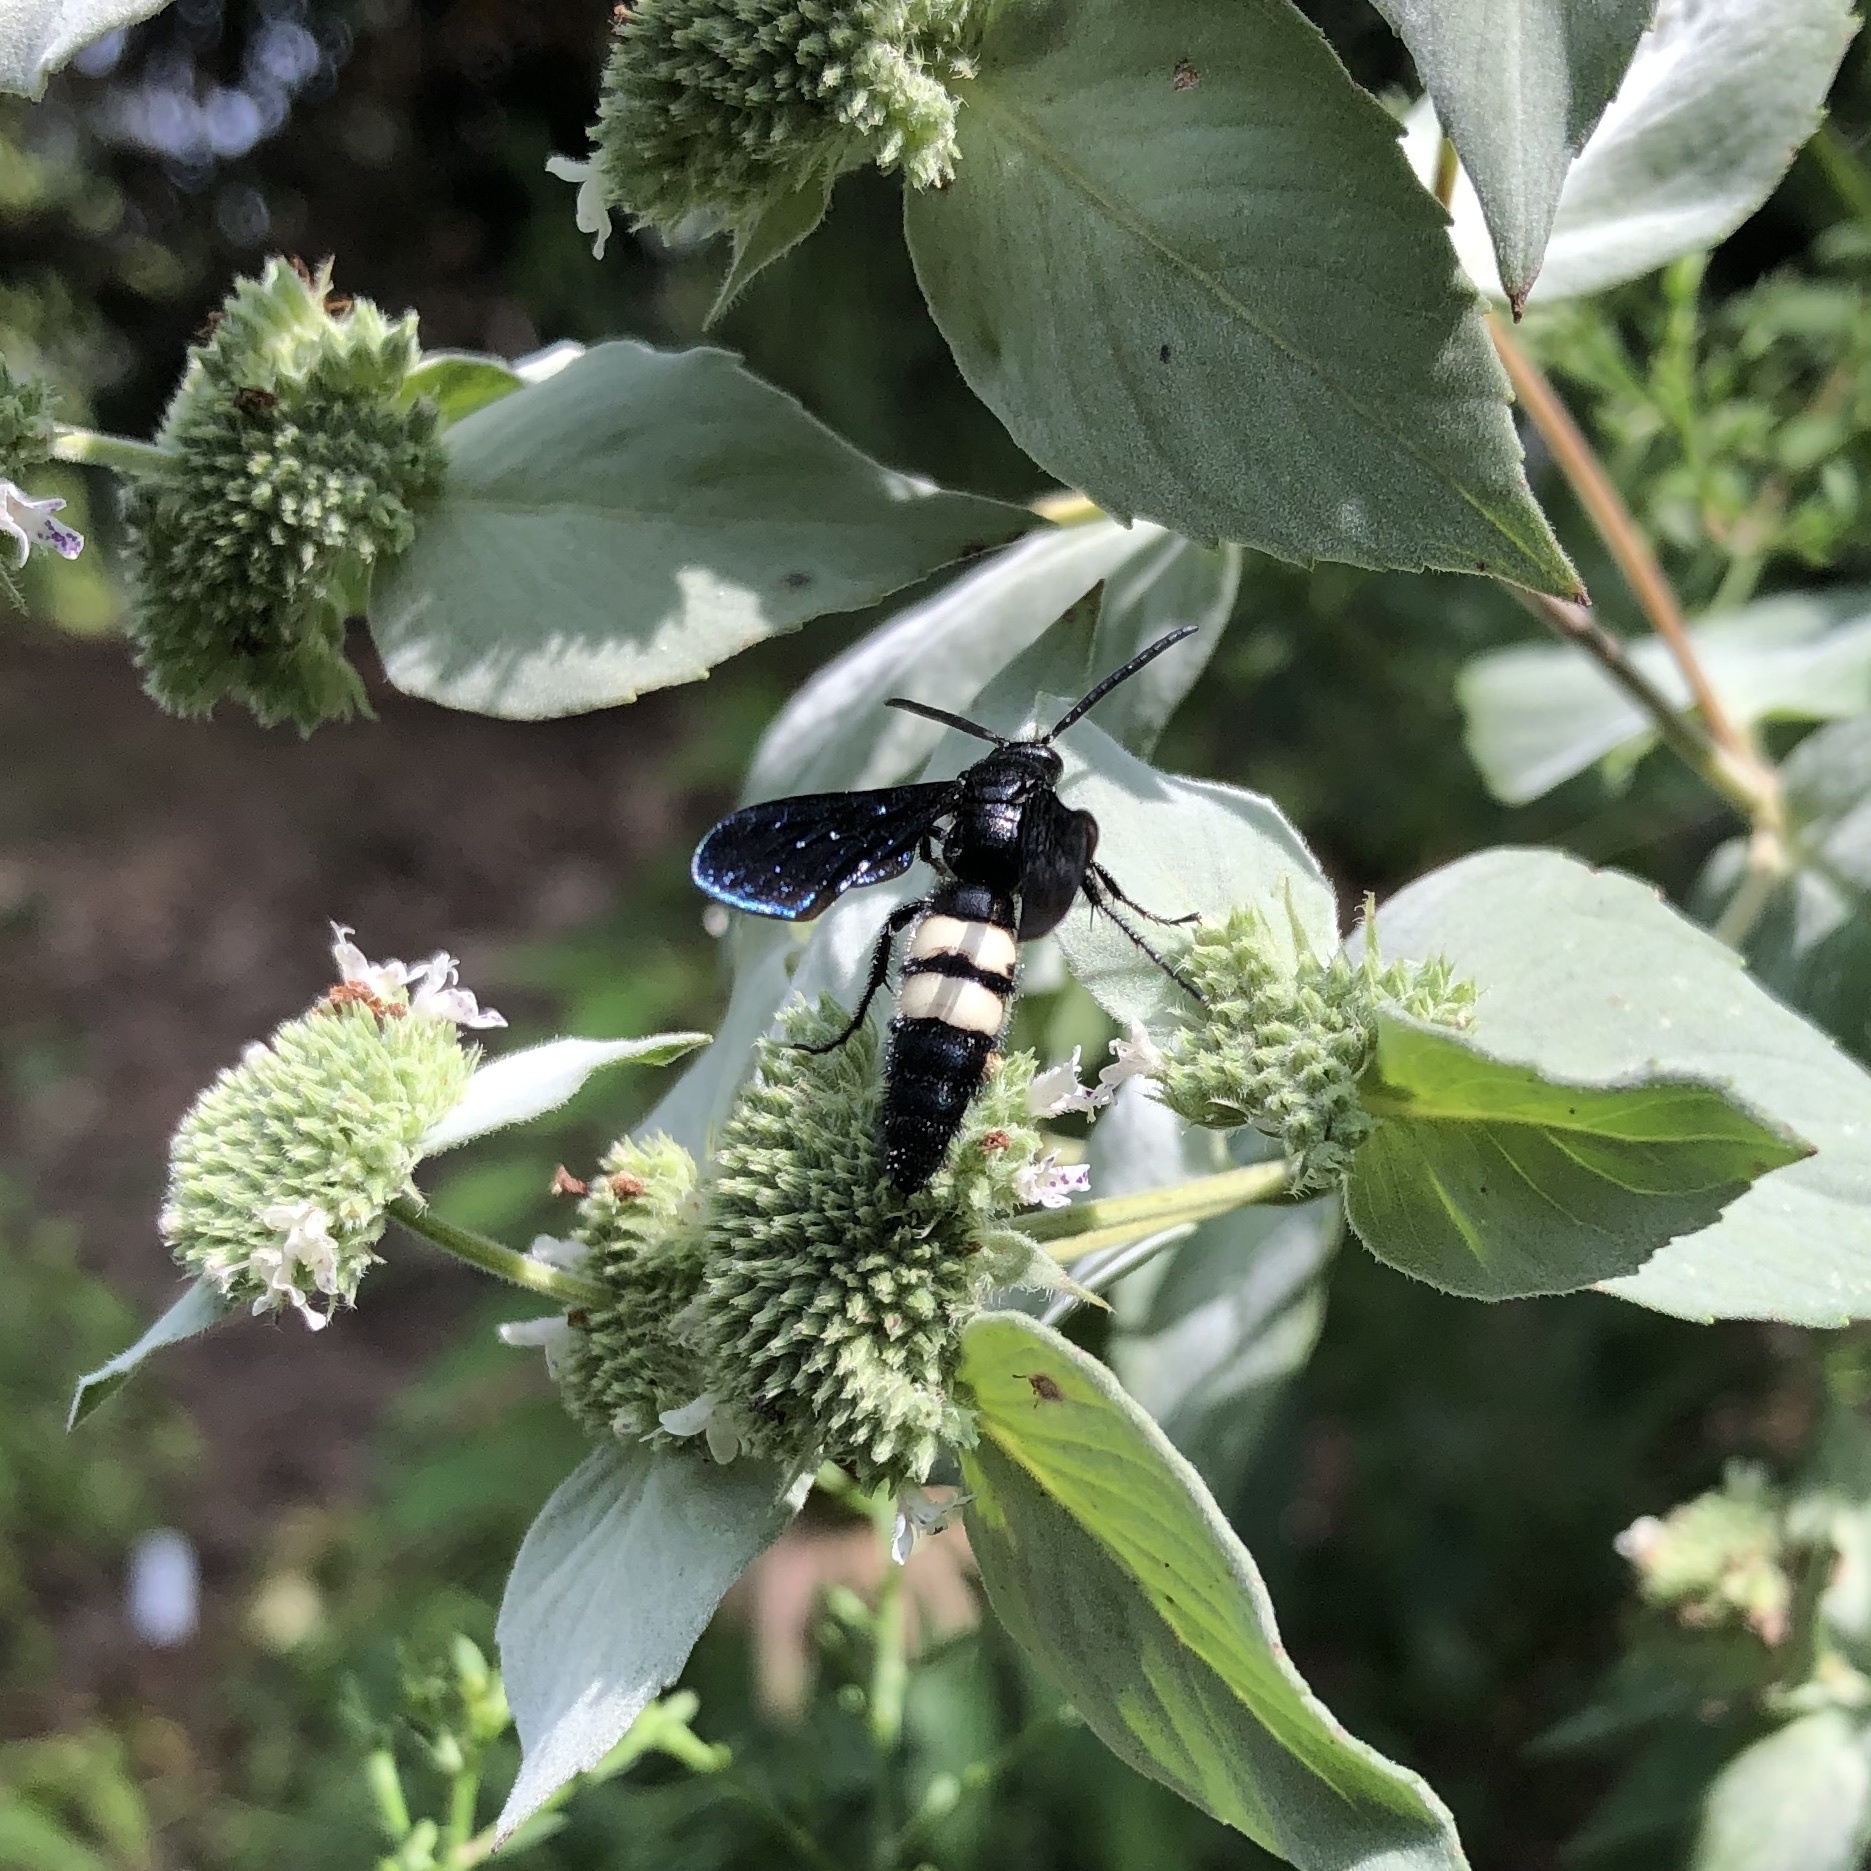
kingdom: Animalia
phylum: Arthropoda
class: Insecta
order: Hymenoptera
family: Scoliidae
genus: Scolia
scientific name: Scolia bicincta
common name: Double-banded scoliid wasp
